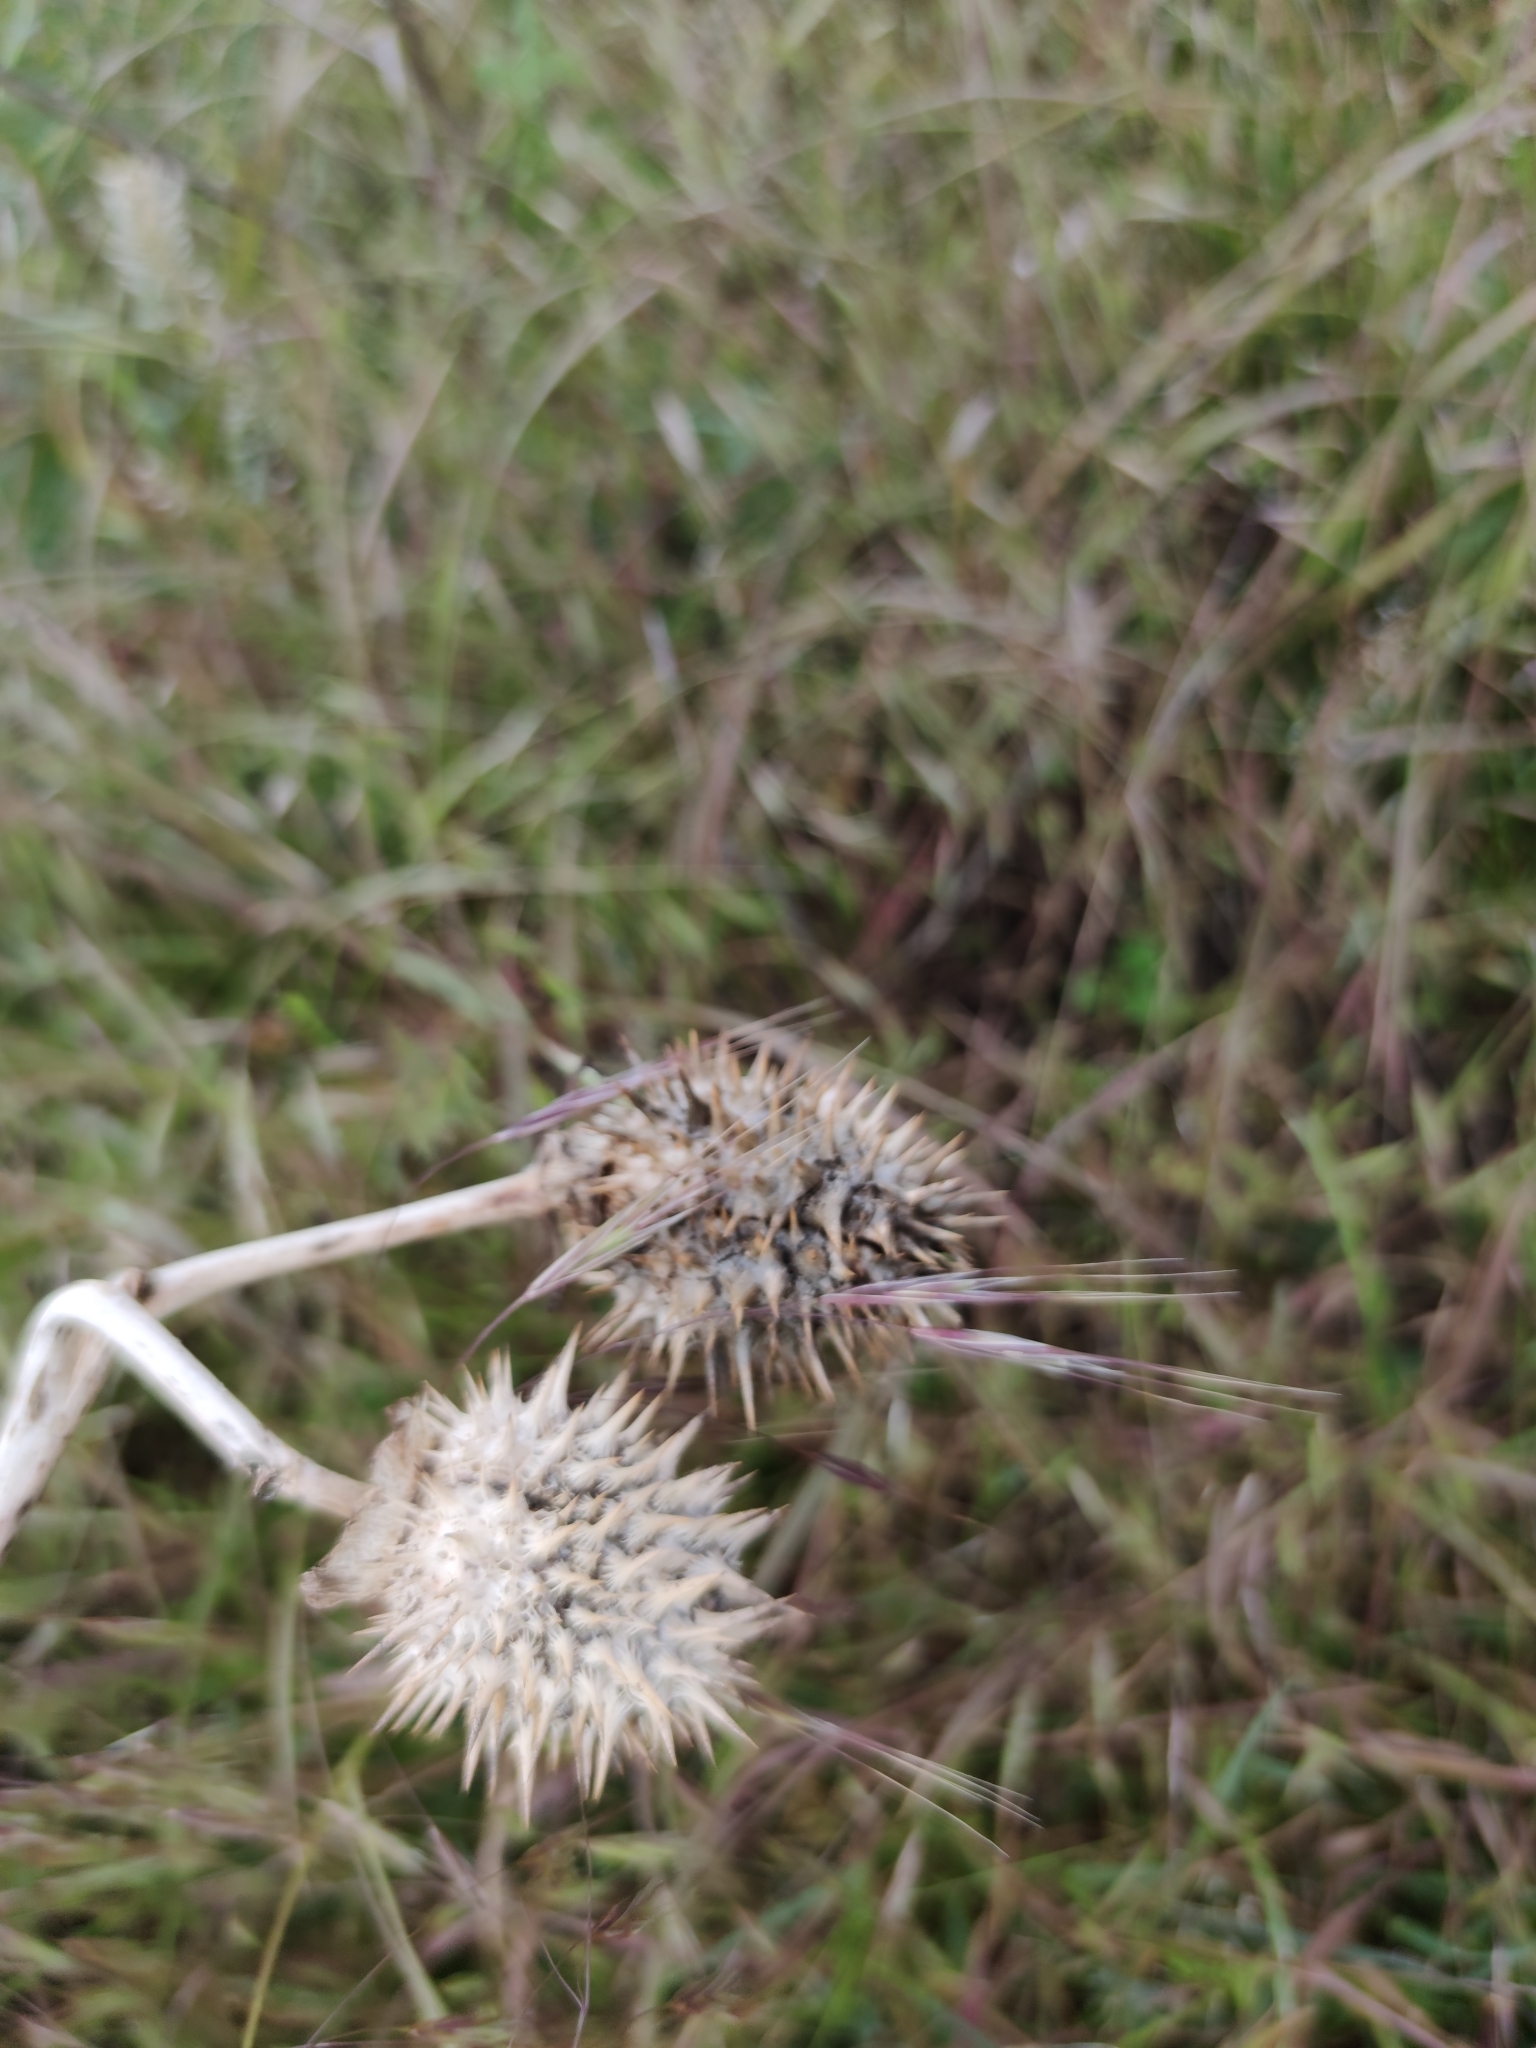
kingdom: Plantae
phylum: Tracheophyta
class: Magnoliopsida
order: Solanales
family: Solanaceae
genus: Datura
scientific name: Datura stramonium
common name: Thorn-apple
